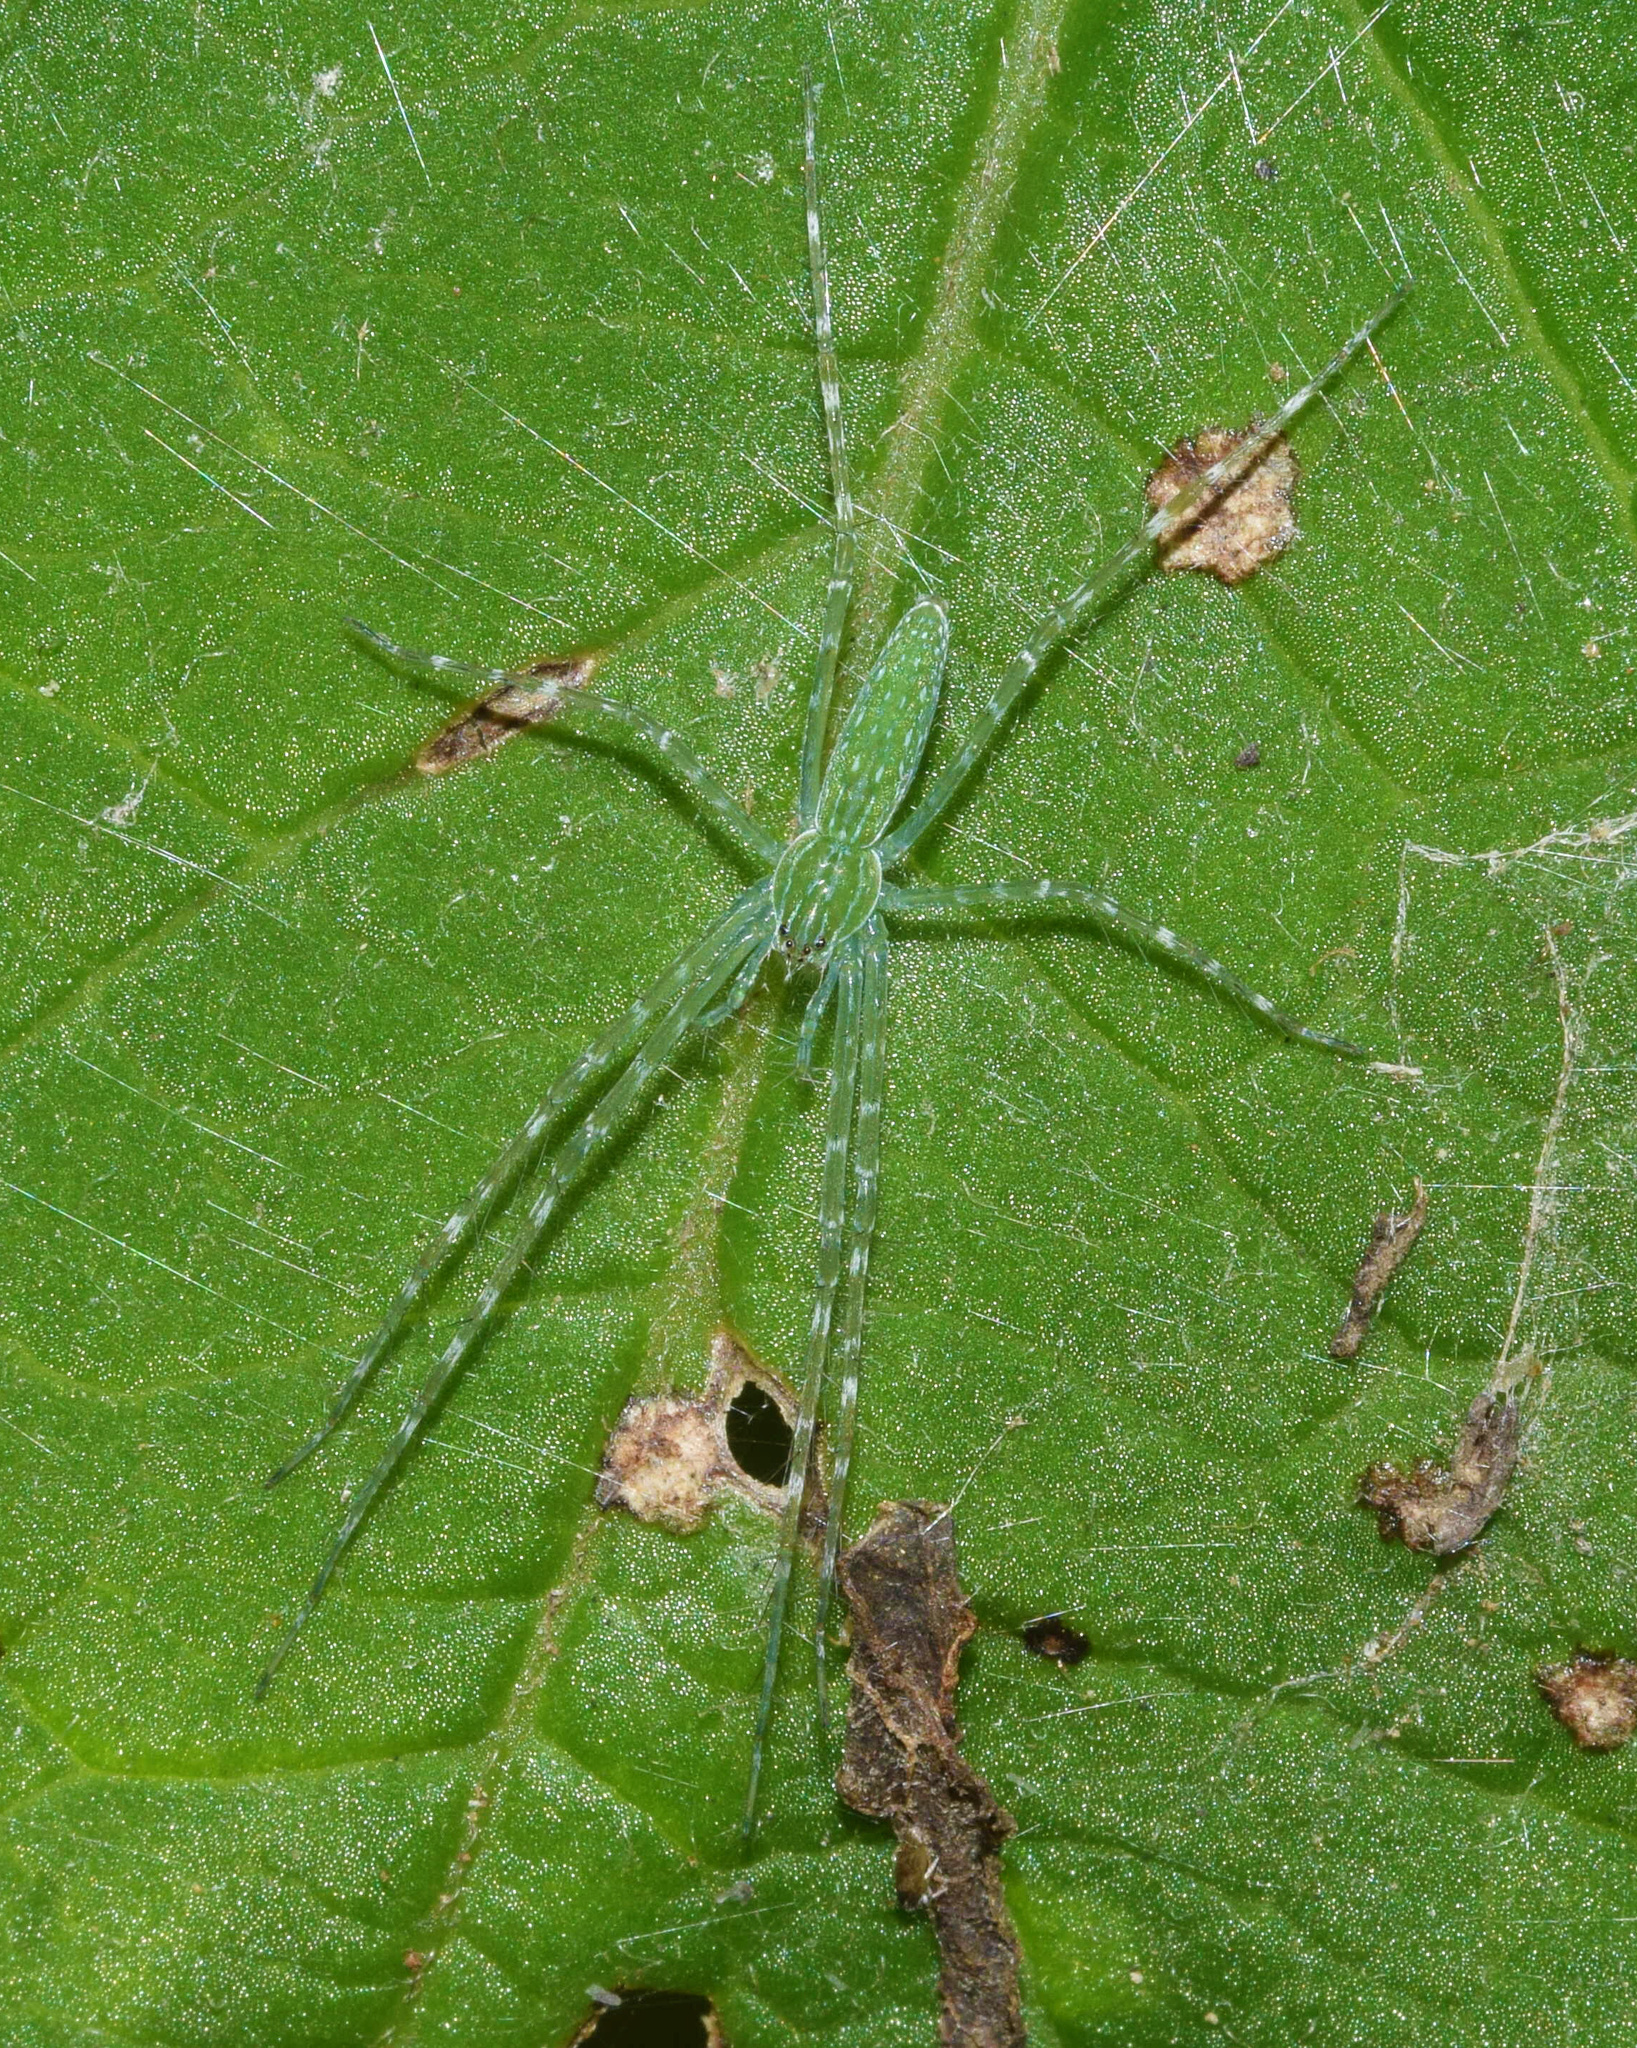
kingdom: Animalia
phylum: Arthropoda
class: Arachnida
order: Araneae
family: Pisauridae
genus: Hygropoda
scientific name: Hygropoda tangana
